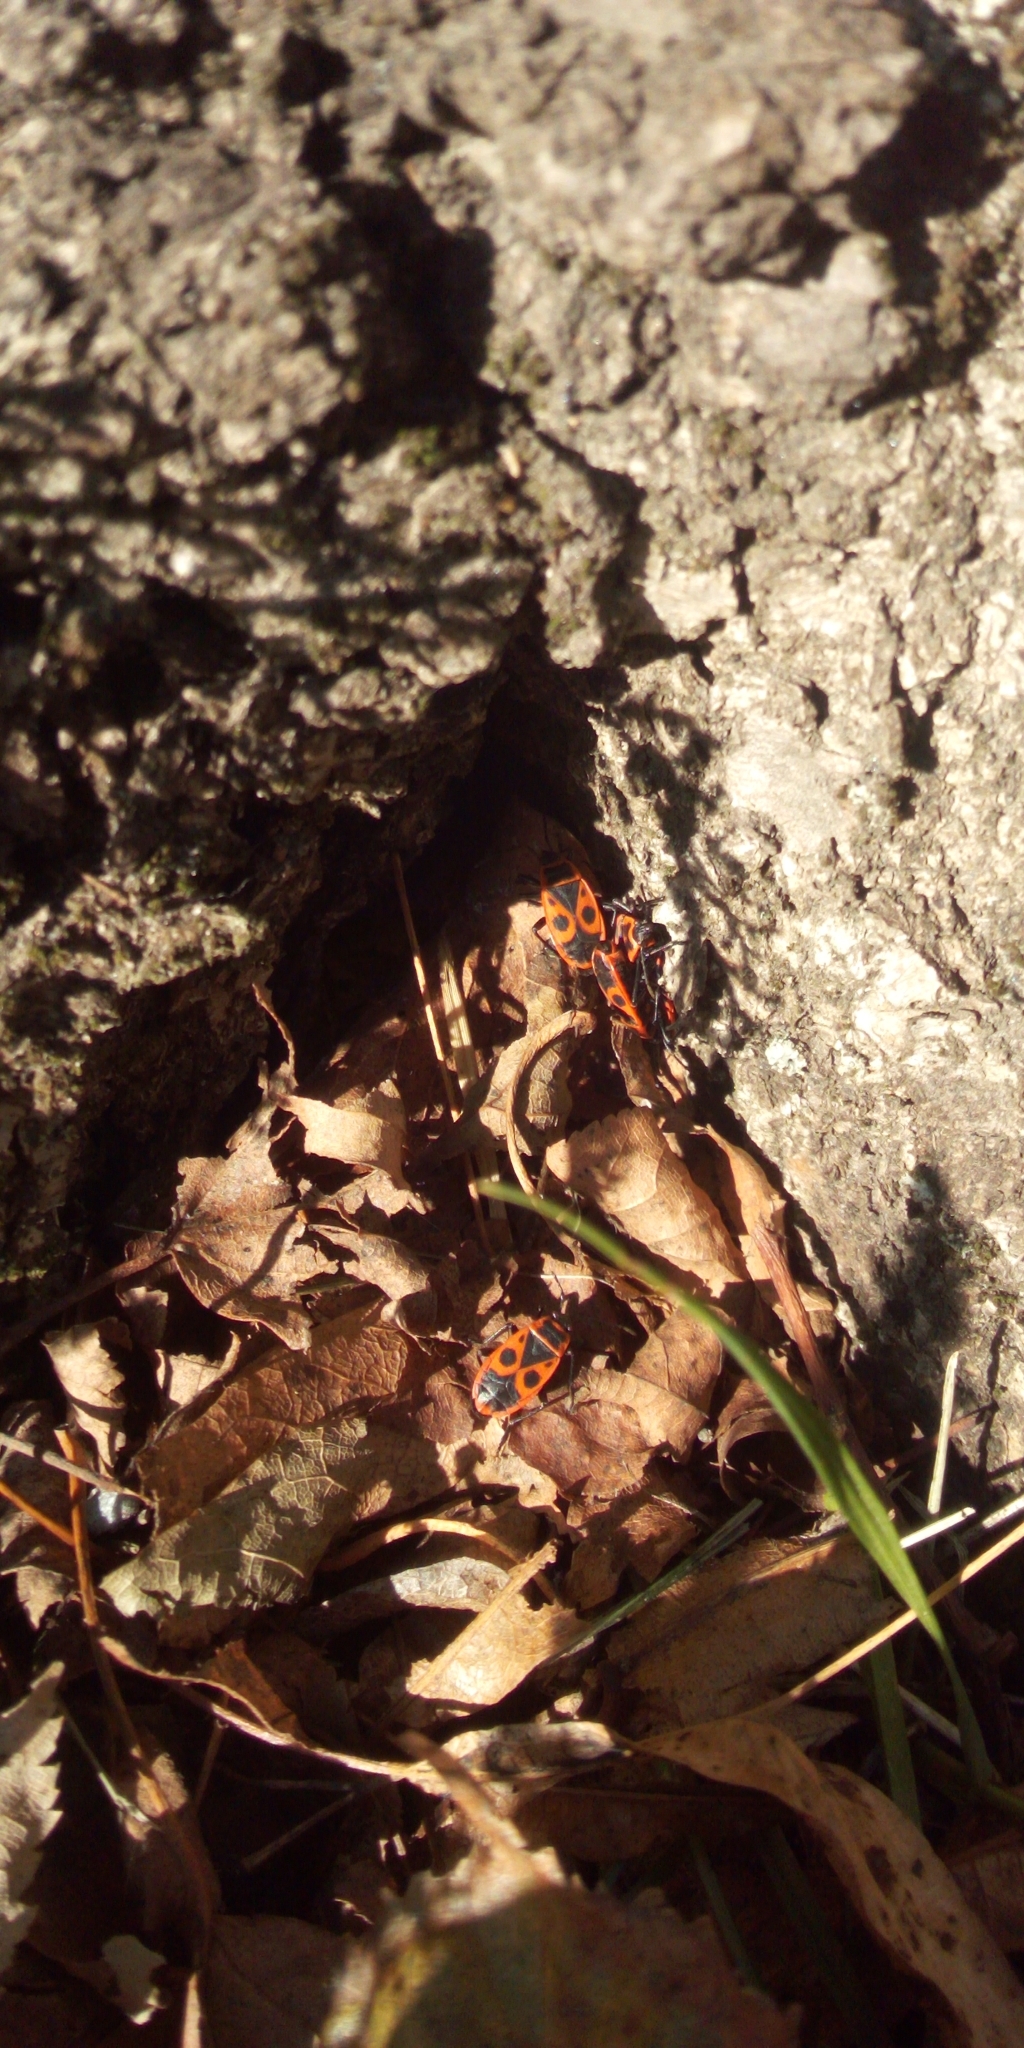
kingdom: Animalia
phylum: Arthropoda
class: Insecta
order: Hemiptera
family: Pyrrhocoridae
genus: Pyrrhocoris
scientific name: Pyrrhocoris apterus
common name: Firebug
